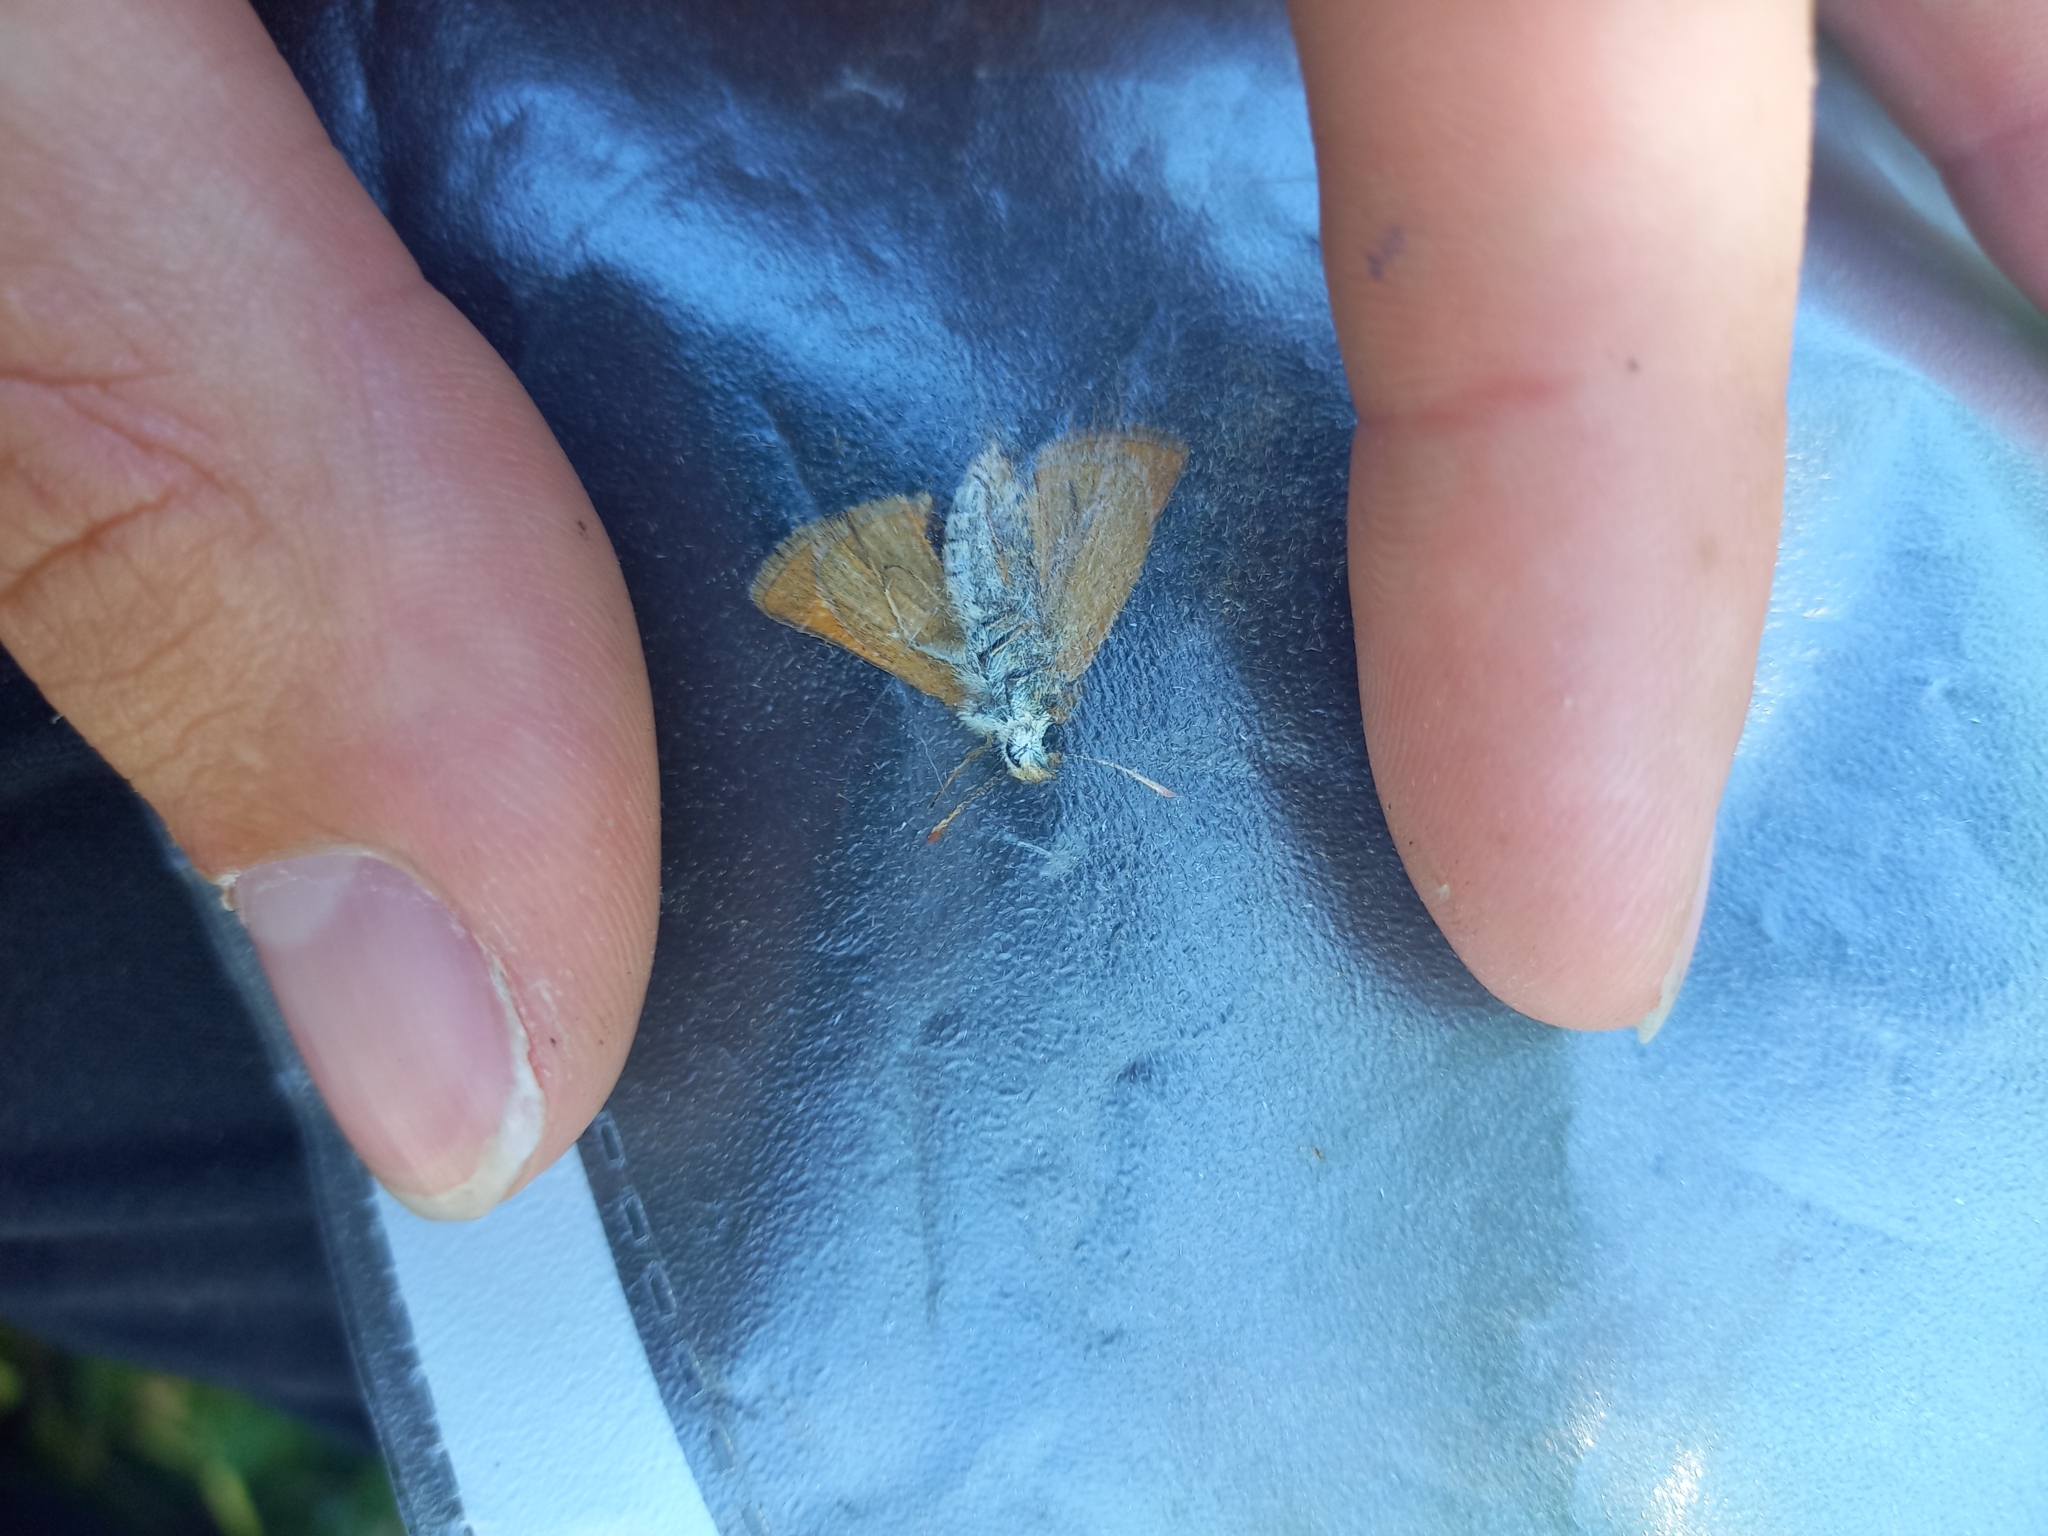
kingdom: Animalia
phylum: Arthropoda
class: Insecta
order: Lepidoptera
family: Hesperiidae
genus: Thymelicus
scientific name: Thymelicus acteon
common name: Lulworth skipper
